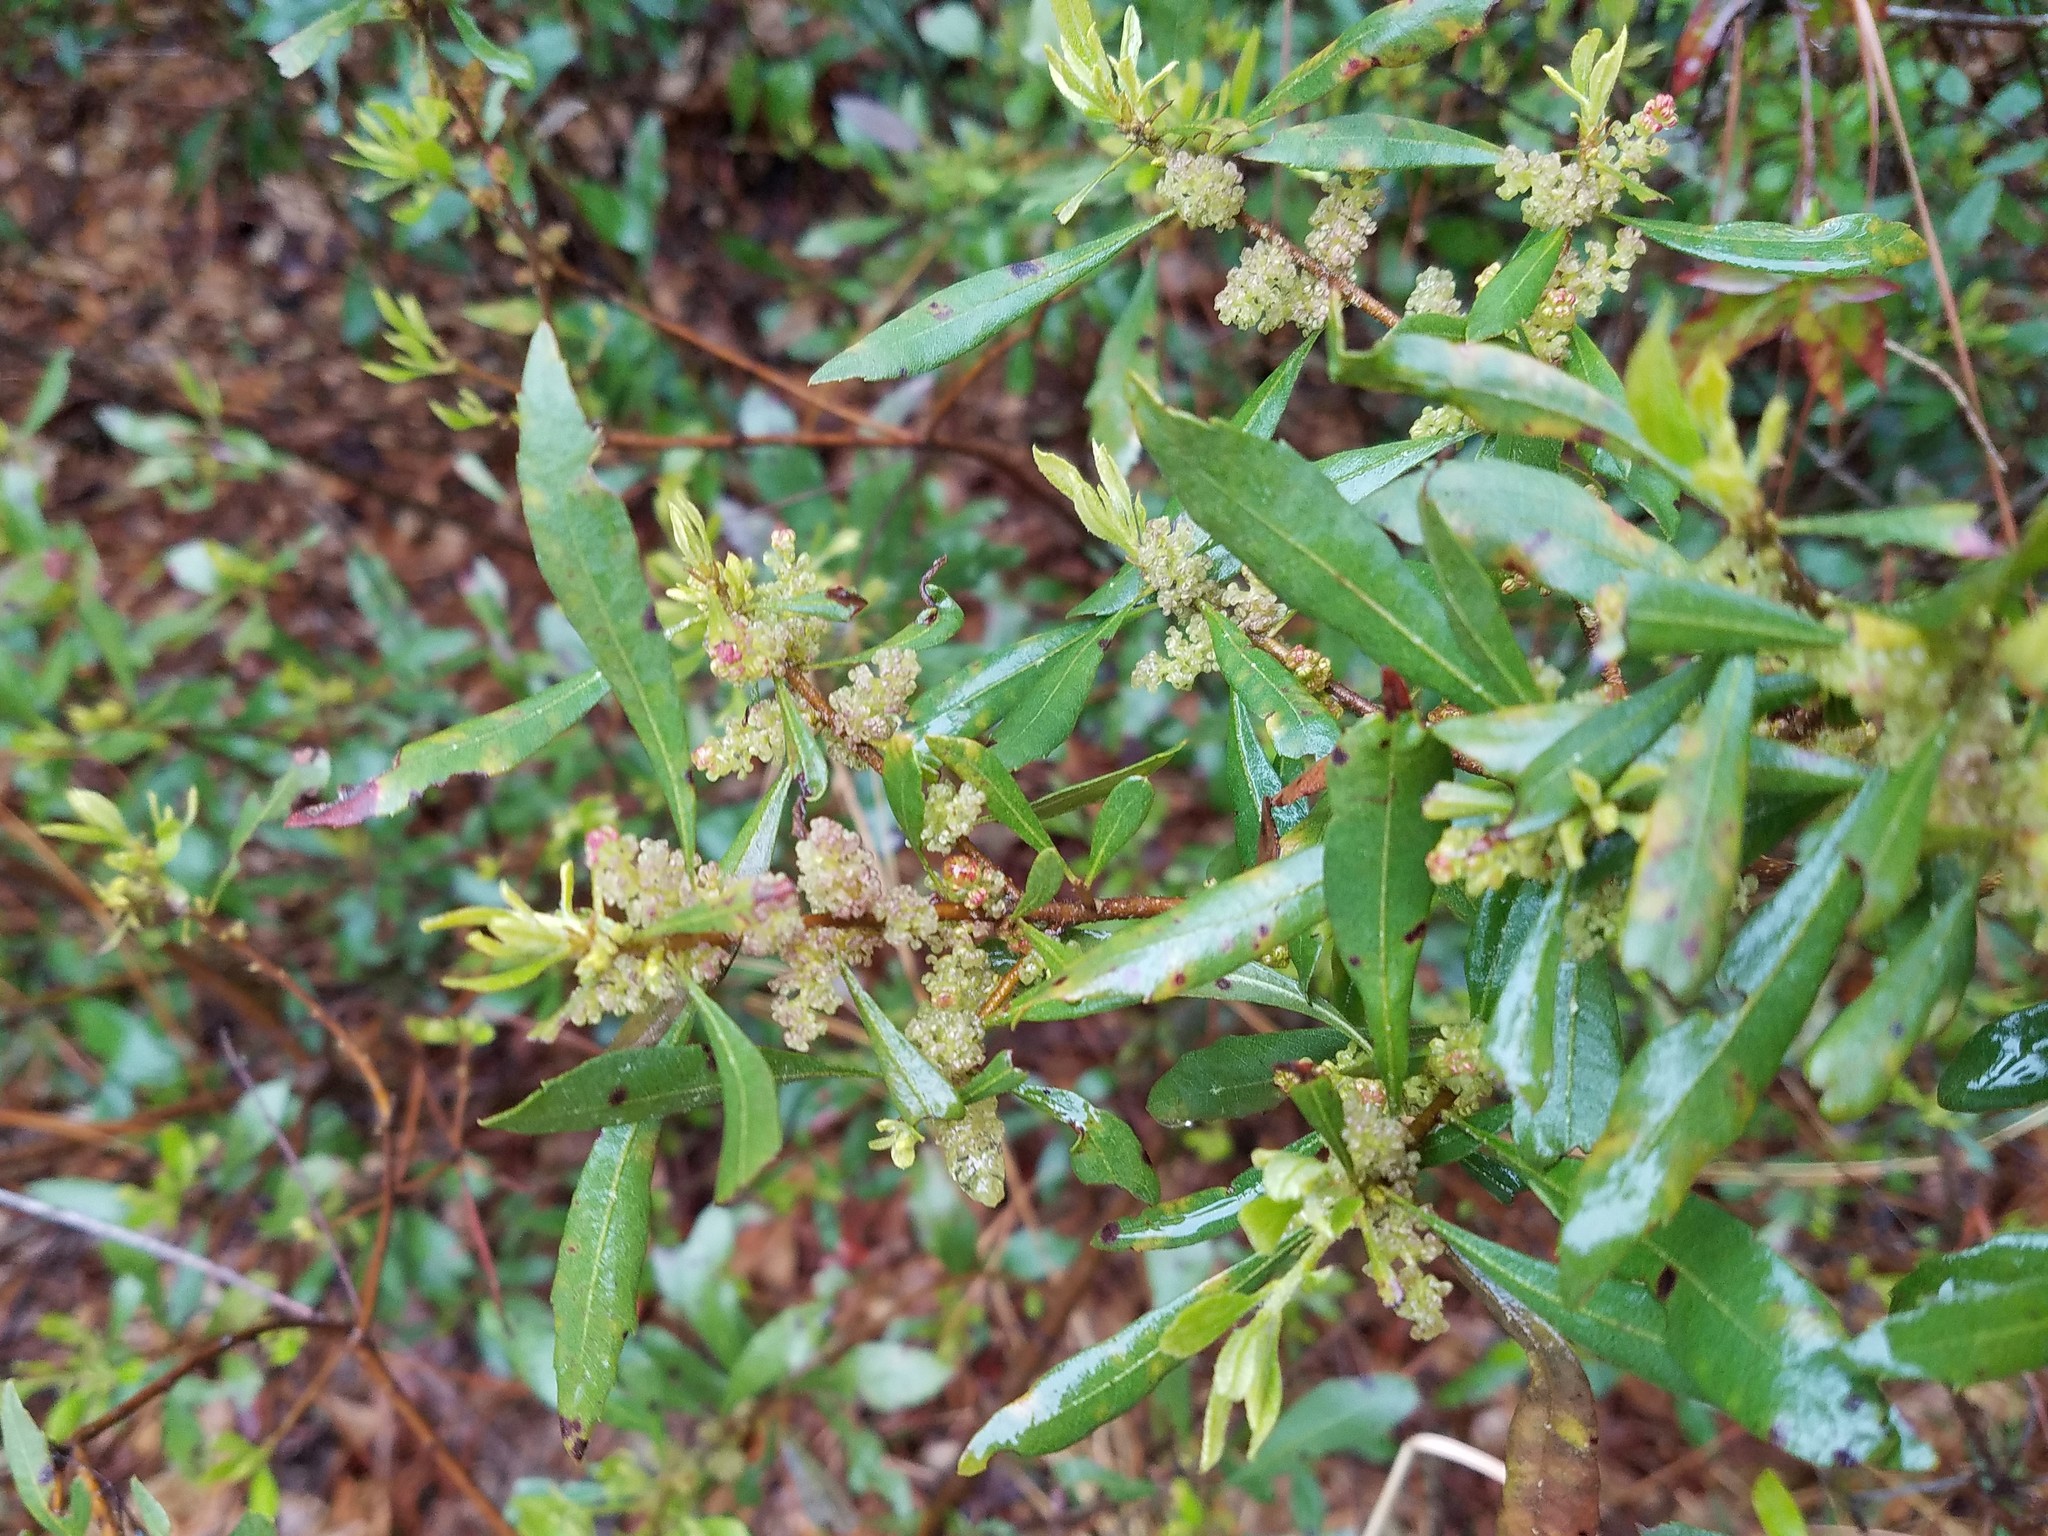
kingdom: Plantae
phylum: Tracheophyta
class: Magnoliopsida
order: Fagales
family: Myricaceae
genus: Morella
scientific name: Morella cerifera
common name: Wax myrtle
